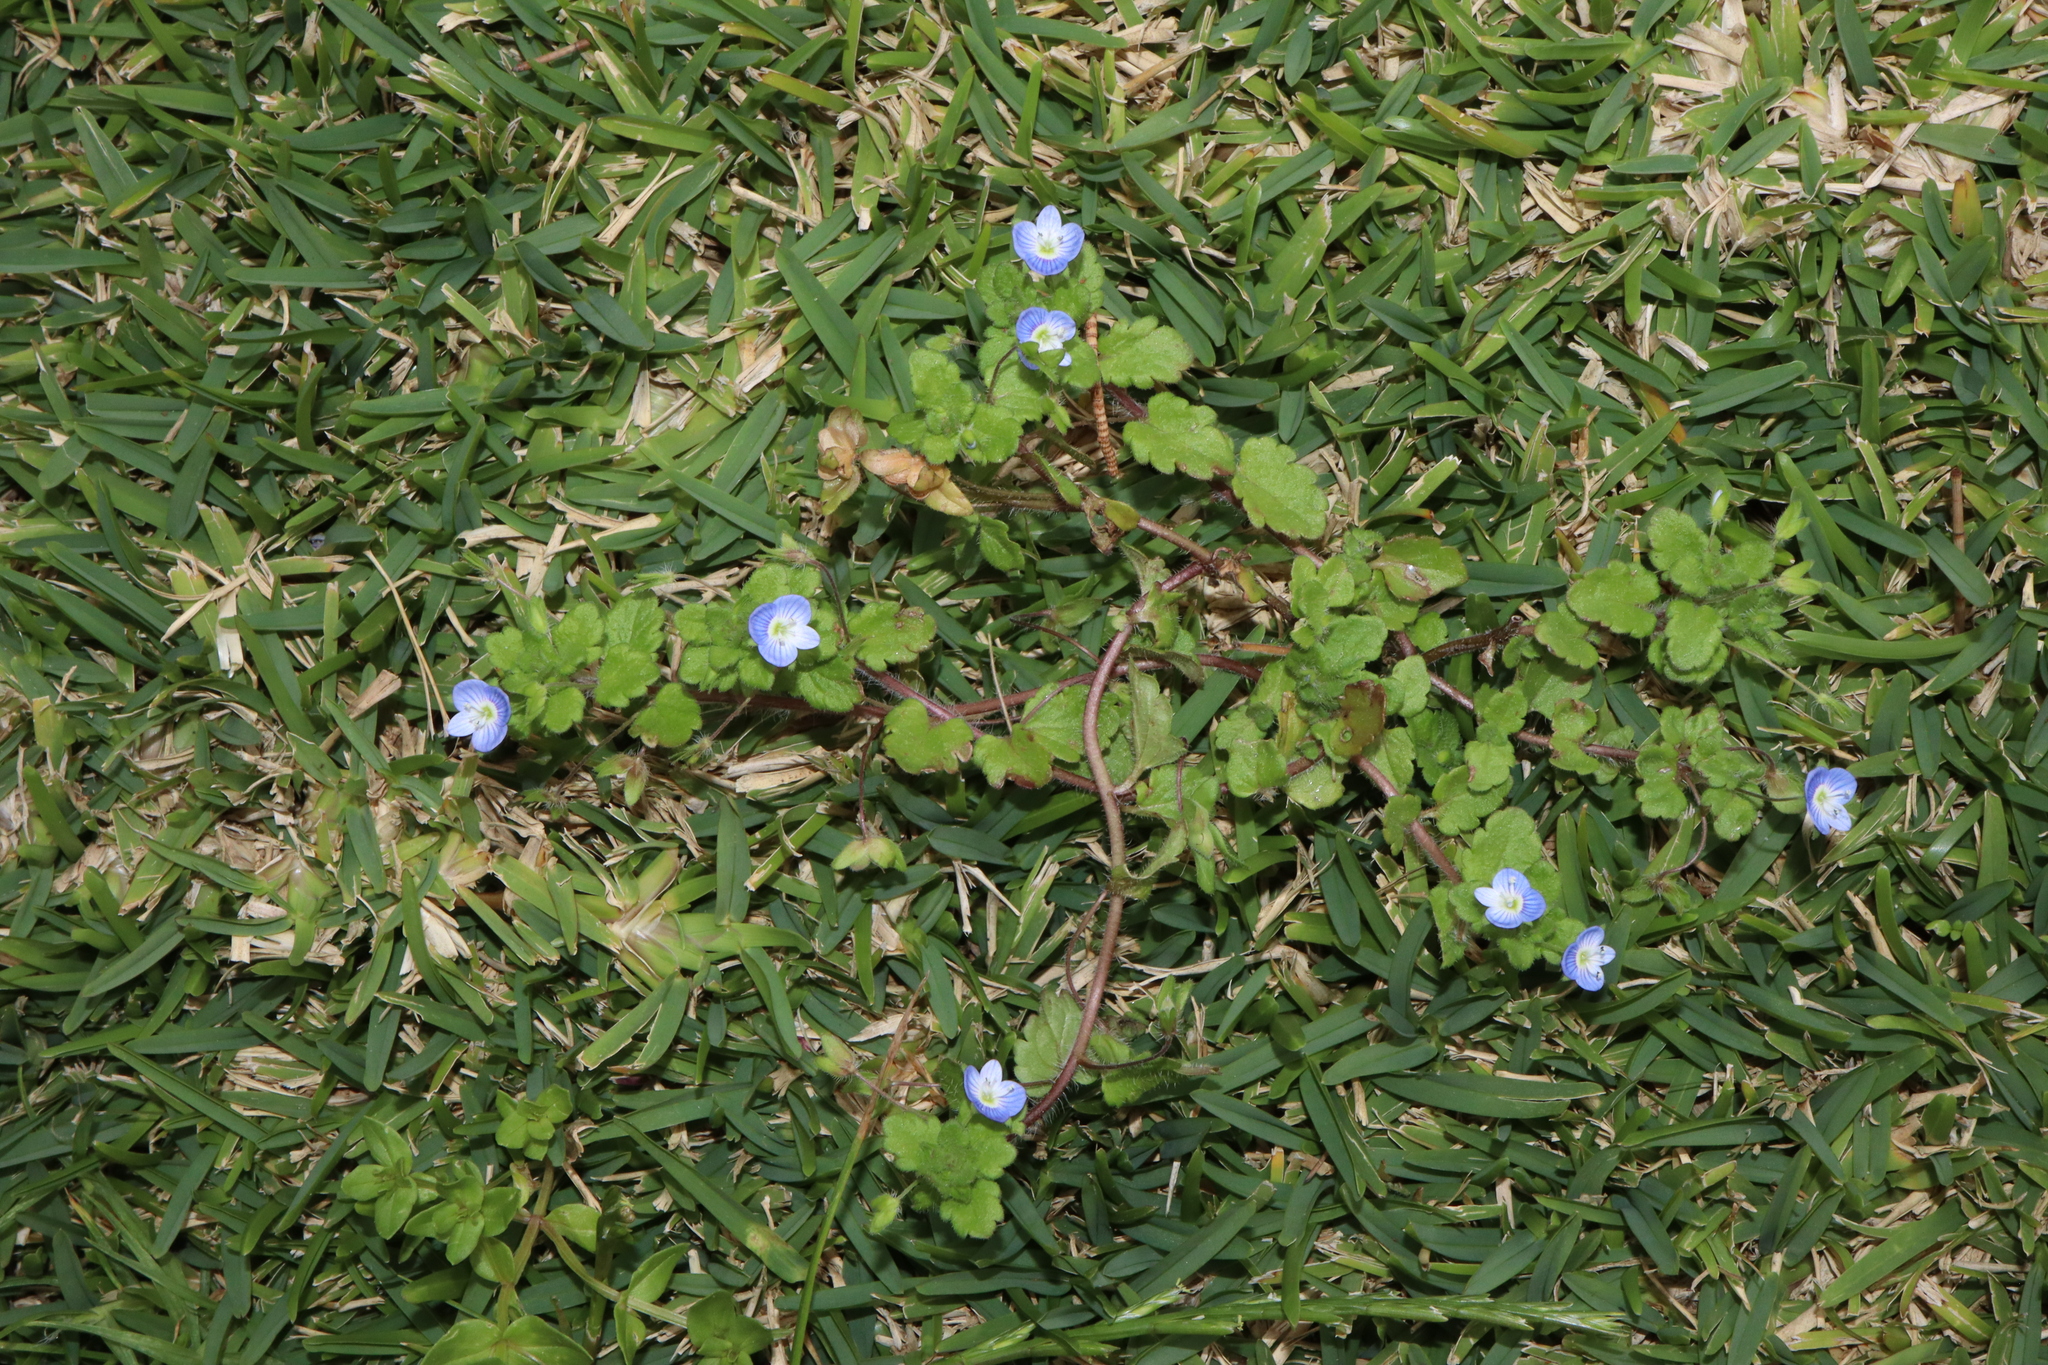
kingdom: Plantae
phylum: Tracheophyta
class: Magnoliopsida
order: Lamiales
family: Plantaginaceae
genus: Veronica
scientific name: Veronica persica
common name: Common field-speedwell
